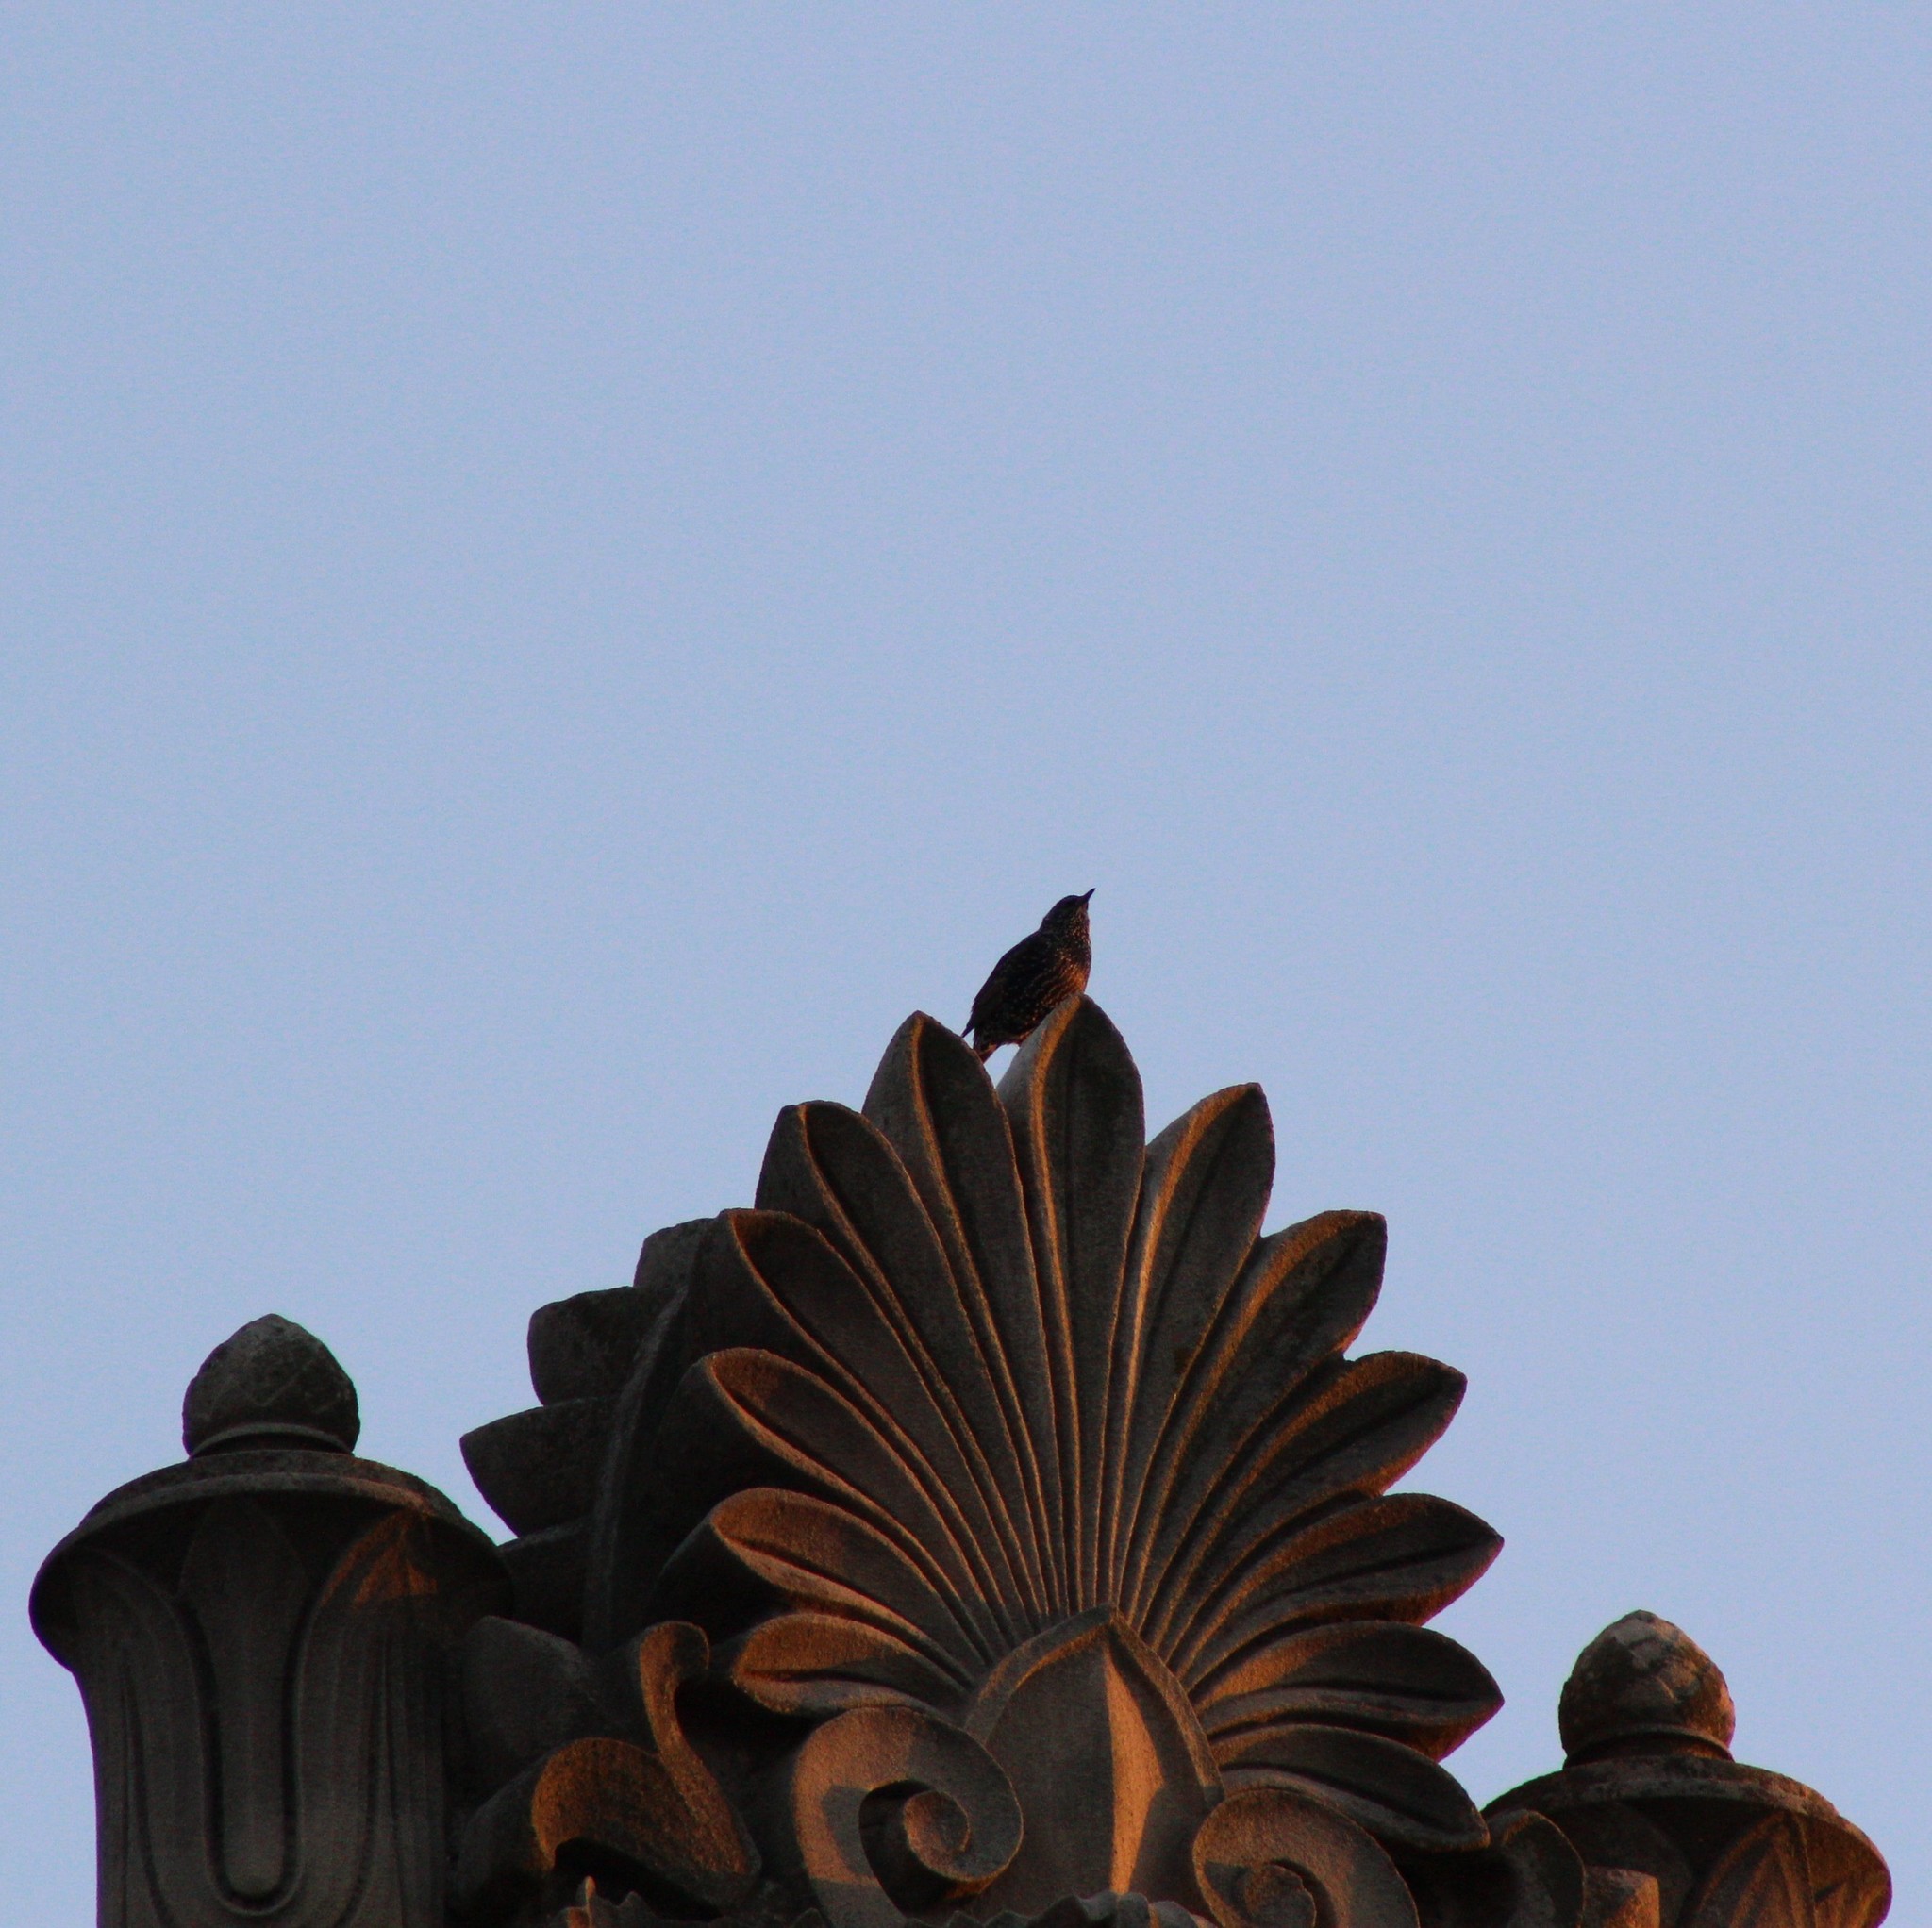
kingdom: Animalia
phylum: Chordata
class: Aves
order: Passeriformes
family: Sturnidae
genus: Sturnus
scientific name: Sturnus vulgaris
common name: Common starling
